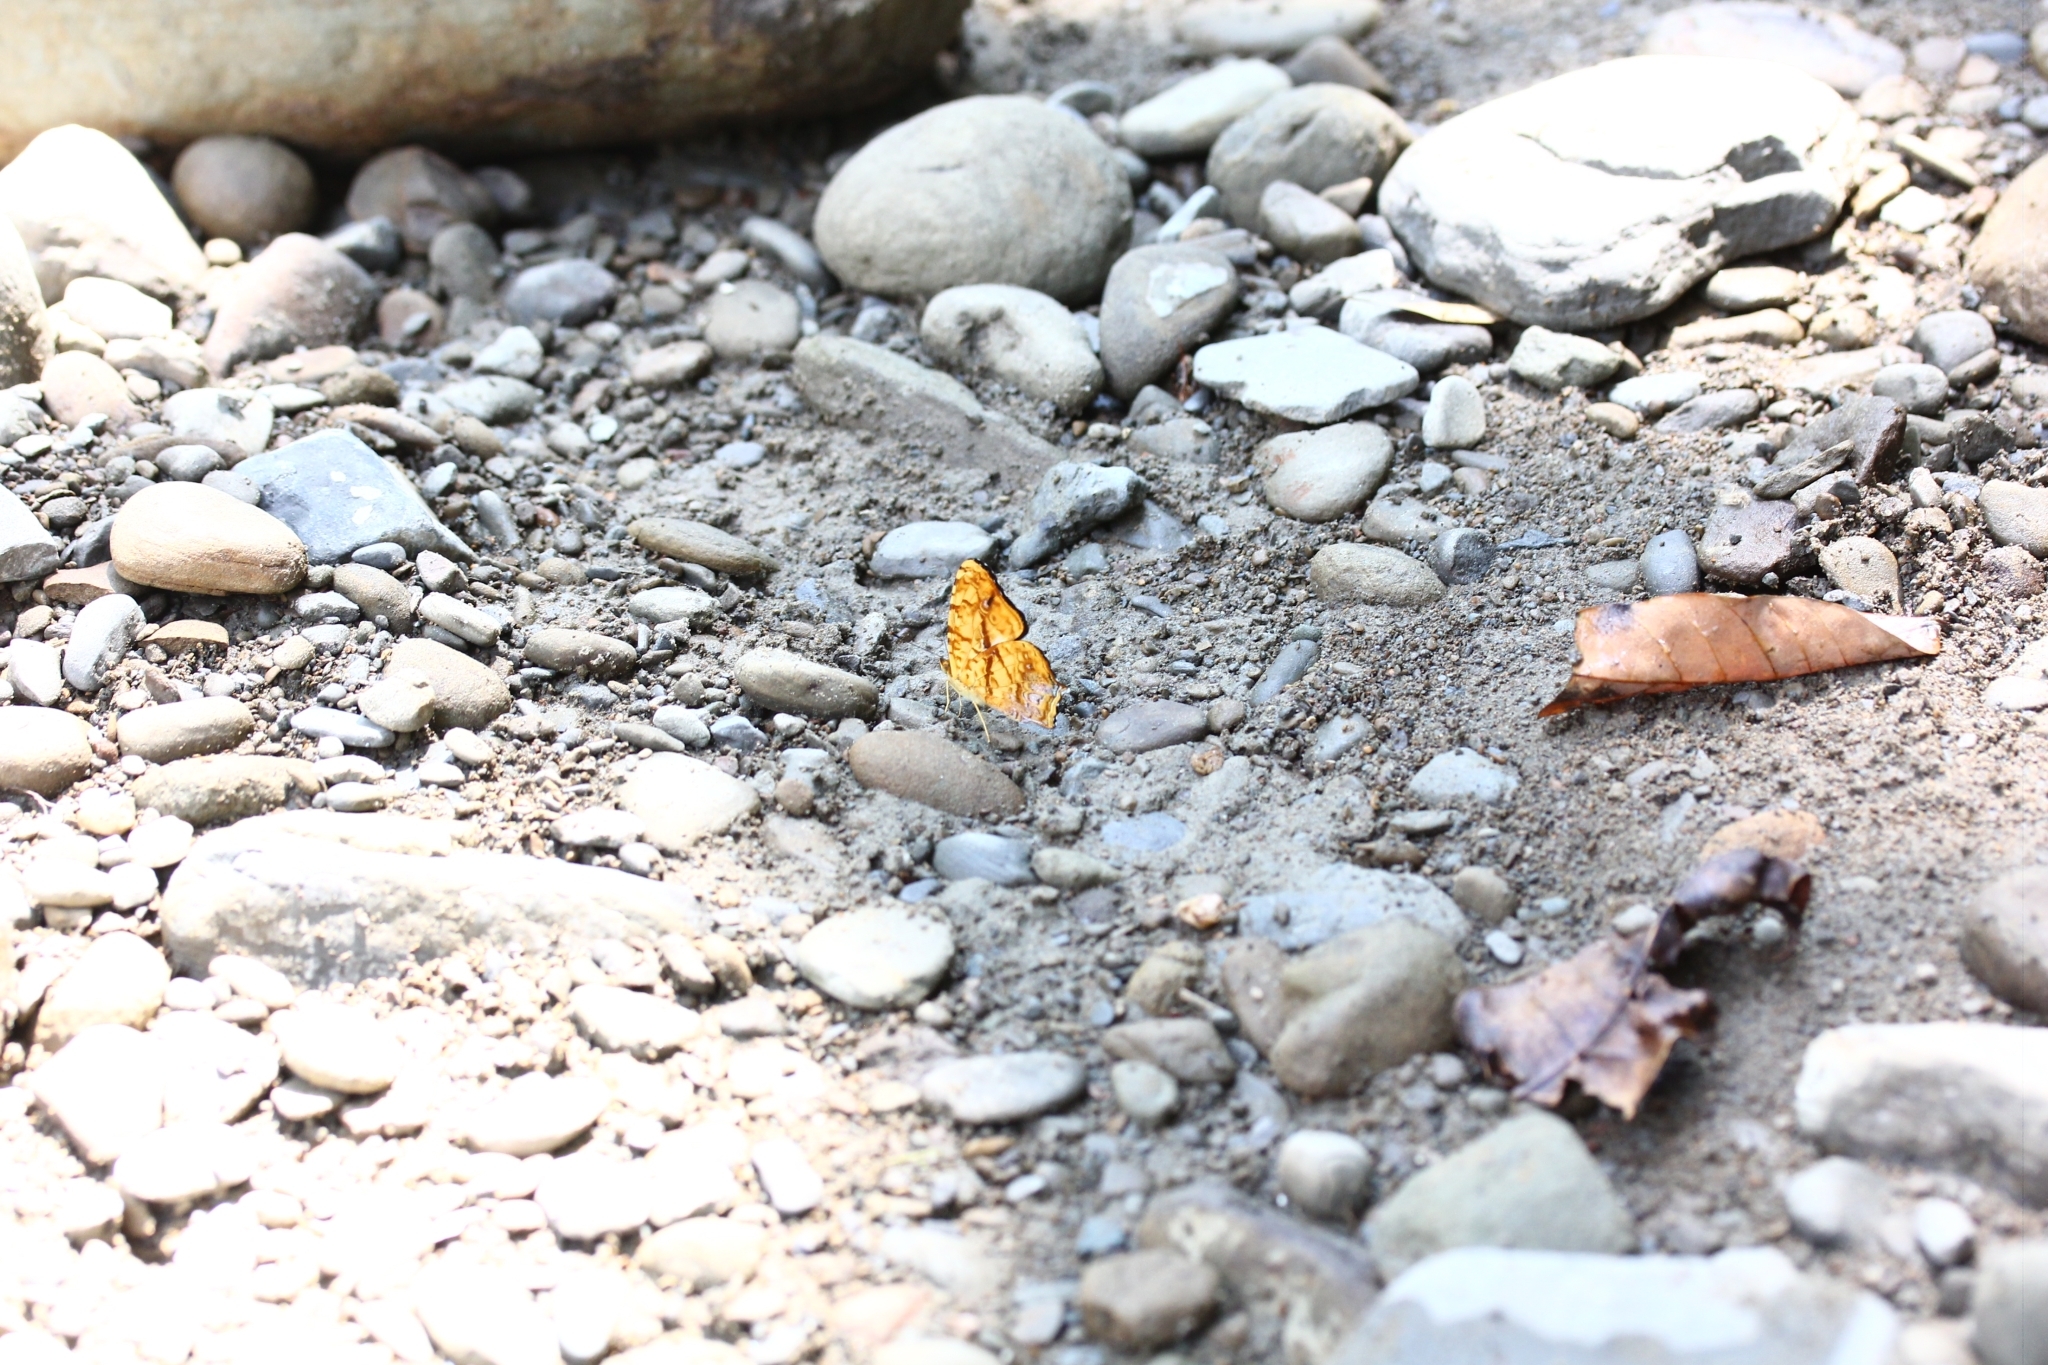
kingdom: Animalia
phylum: Arthropoda
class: Insecta
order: Lepidoptera
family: Nymphalidae
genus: Symbrenthia
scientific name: Symbrenthia hypselis
